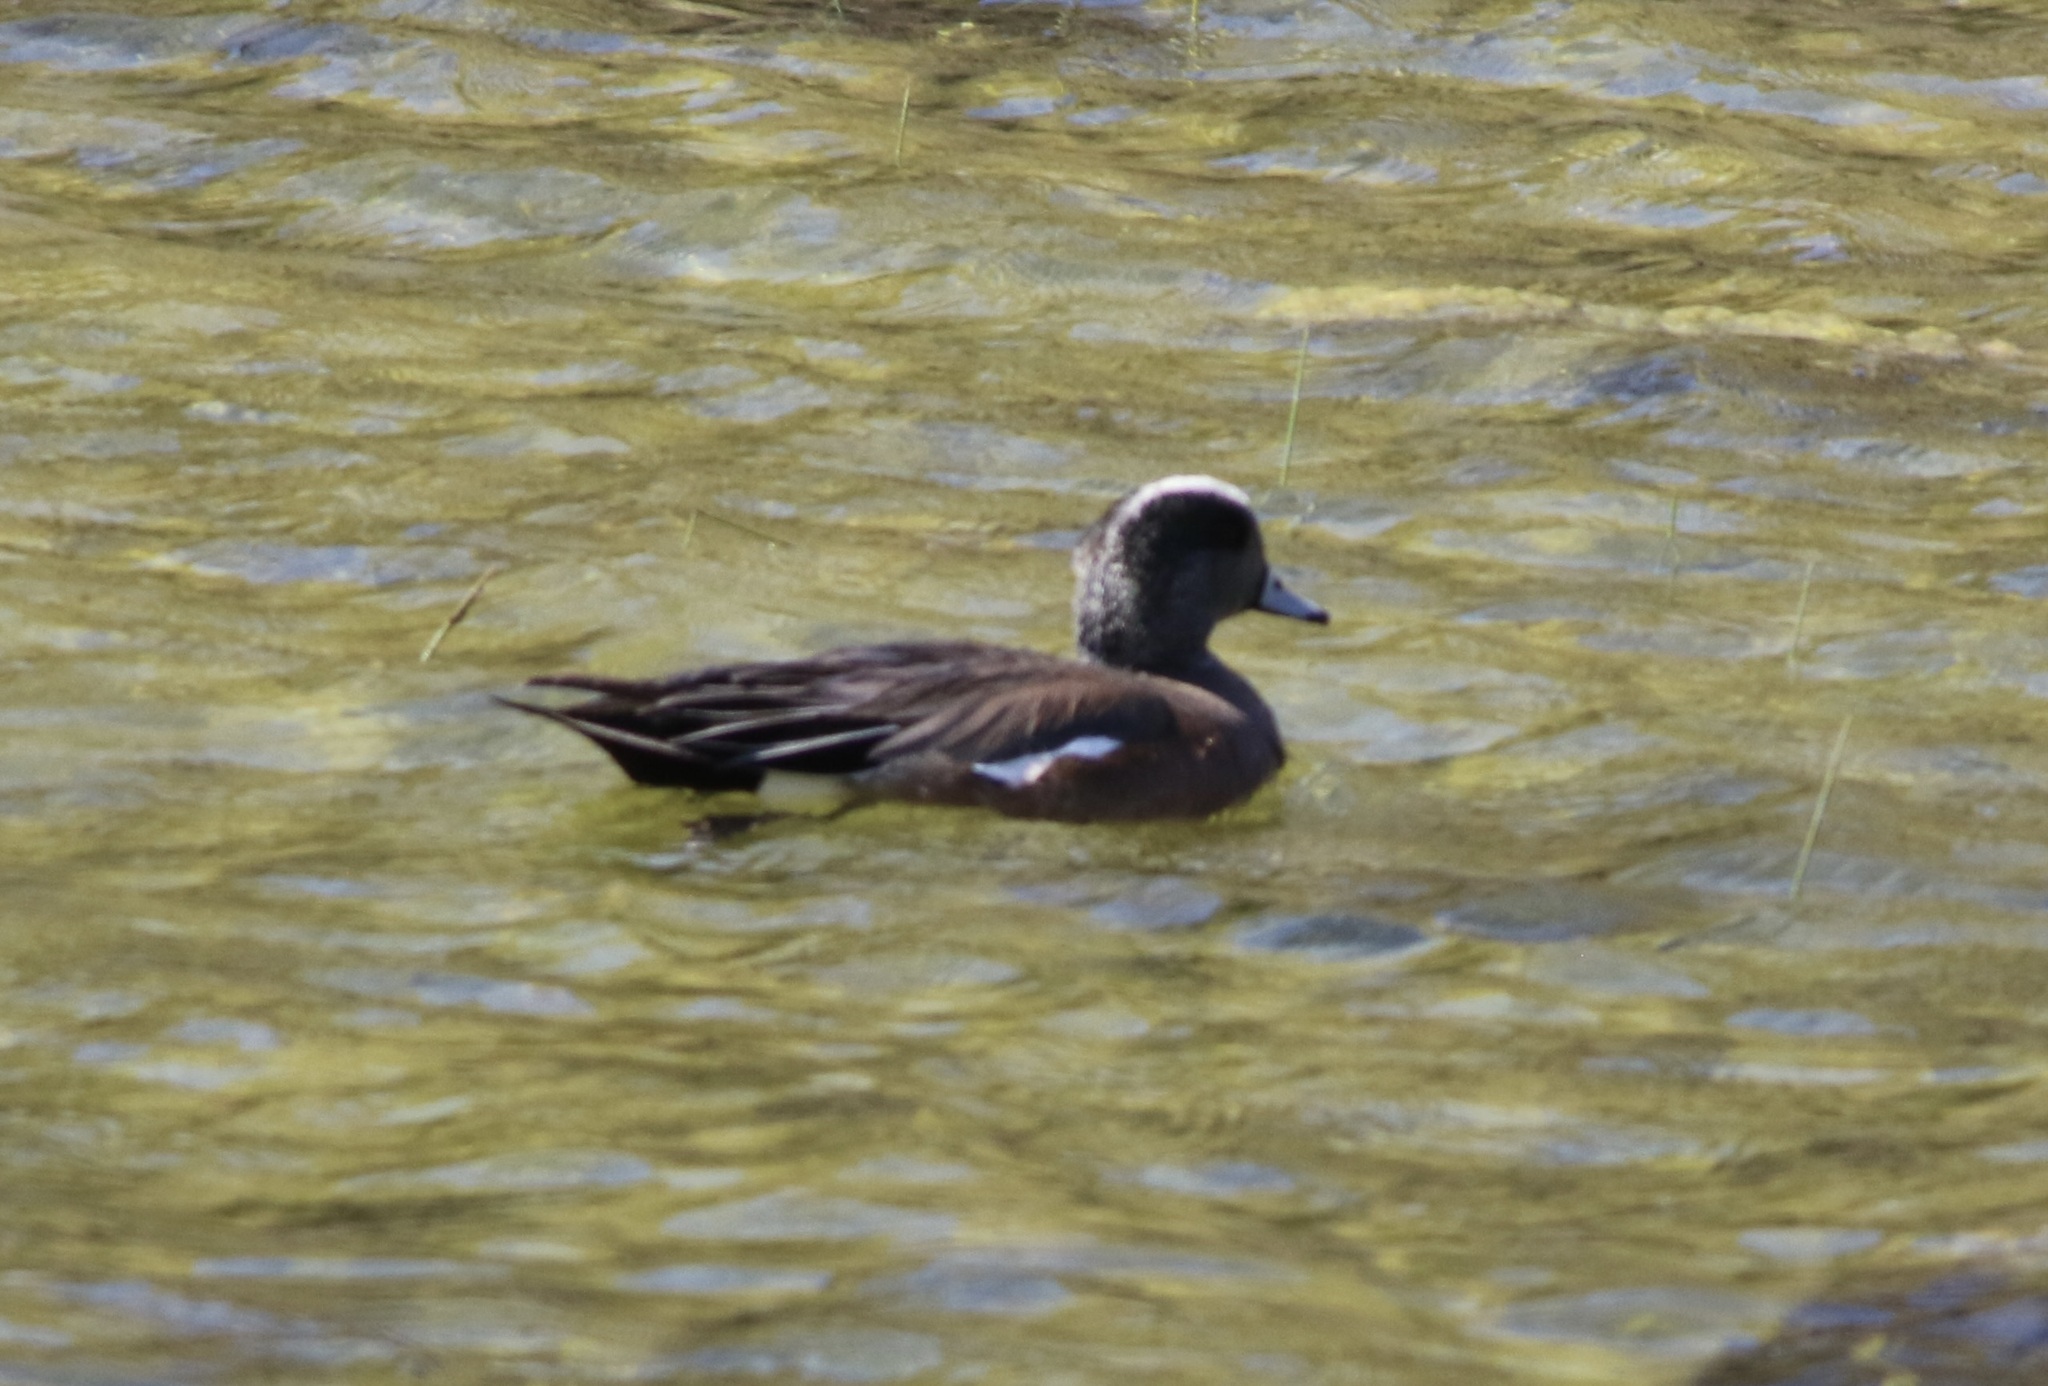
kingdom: Animalia
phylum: Chordata
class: Aves
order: Anseriformes
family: Anatidae
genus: Mareca
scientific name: Mareca americana
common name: American wigeon
